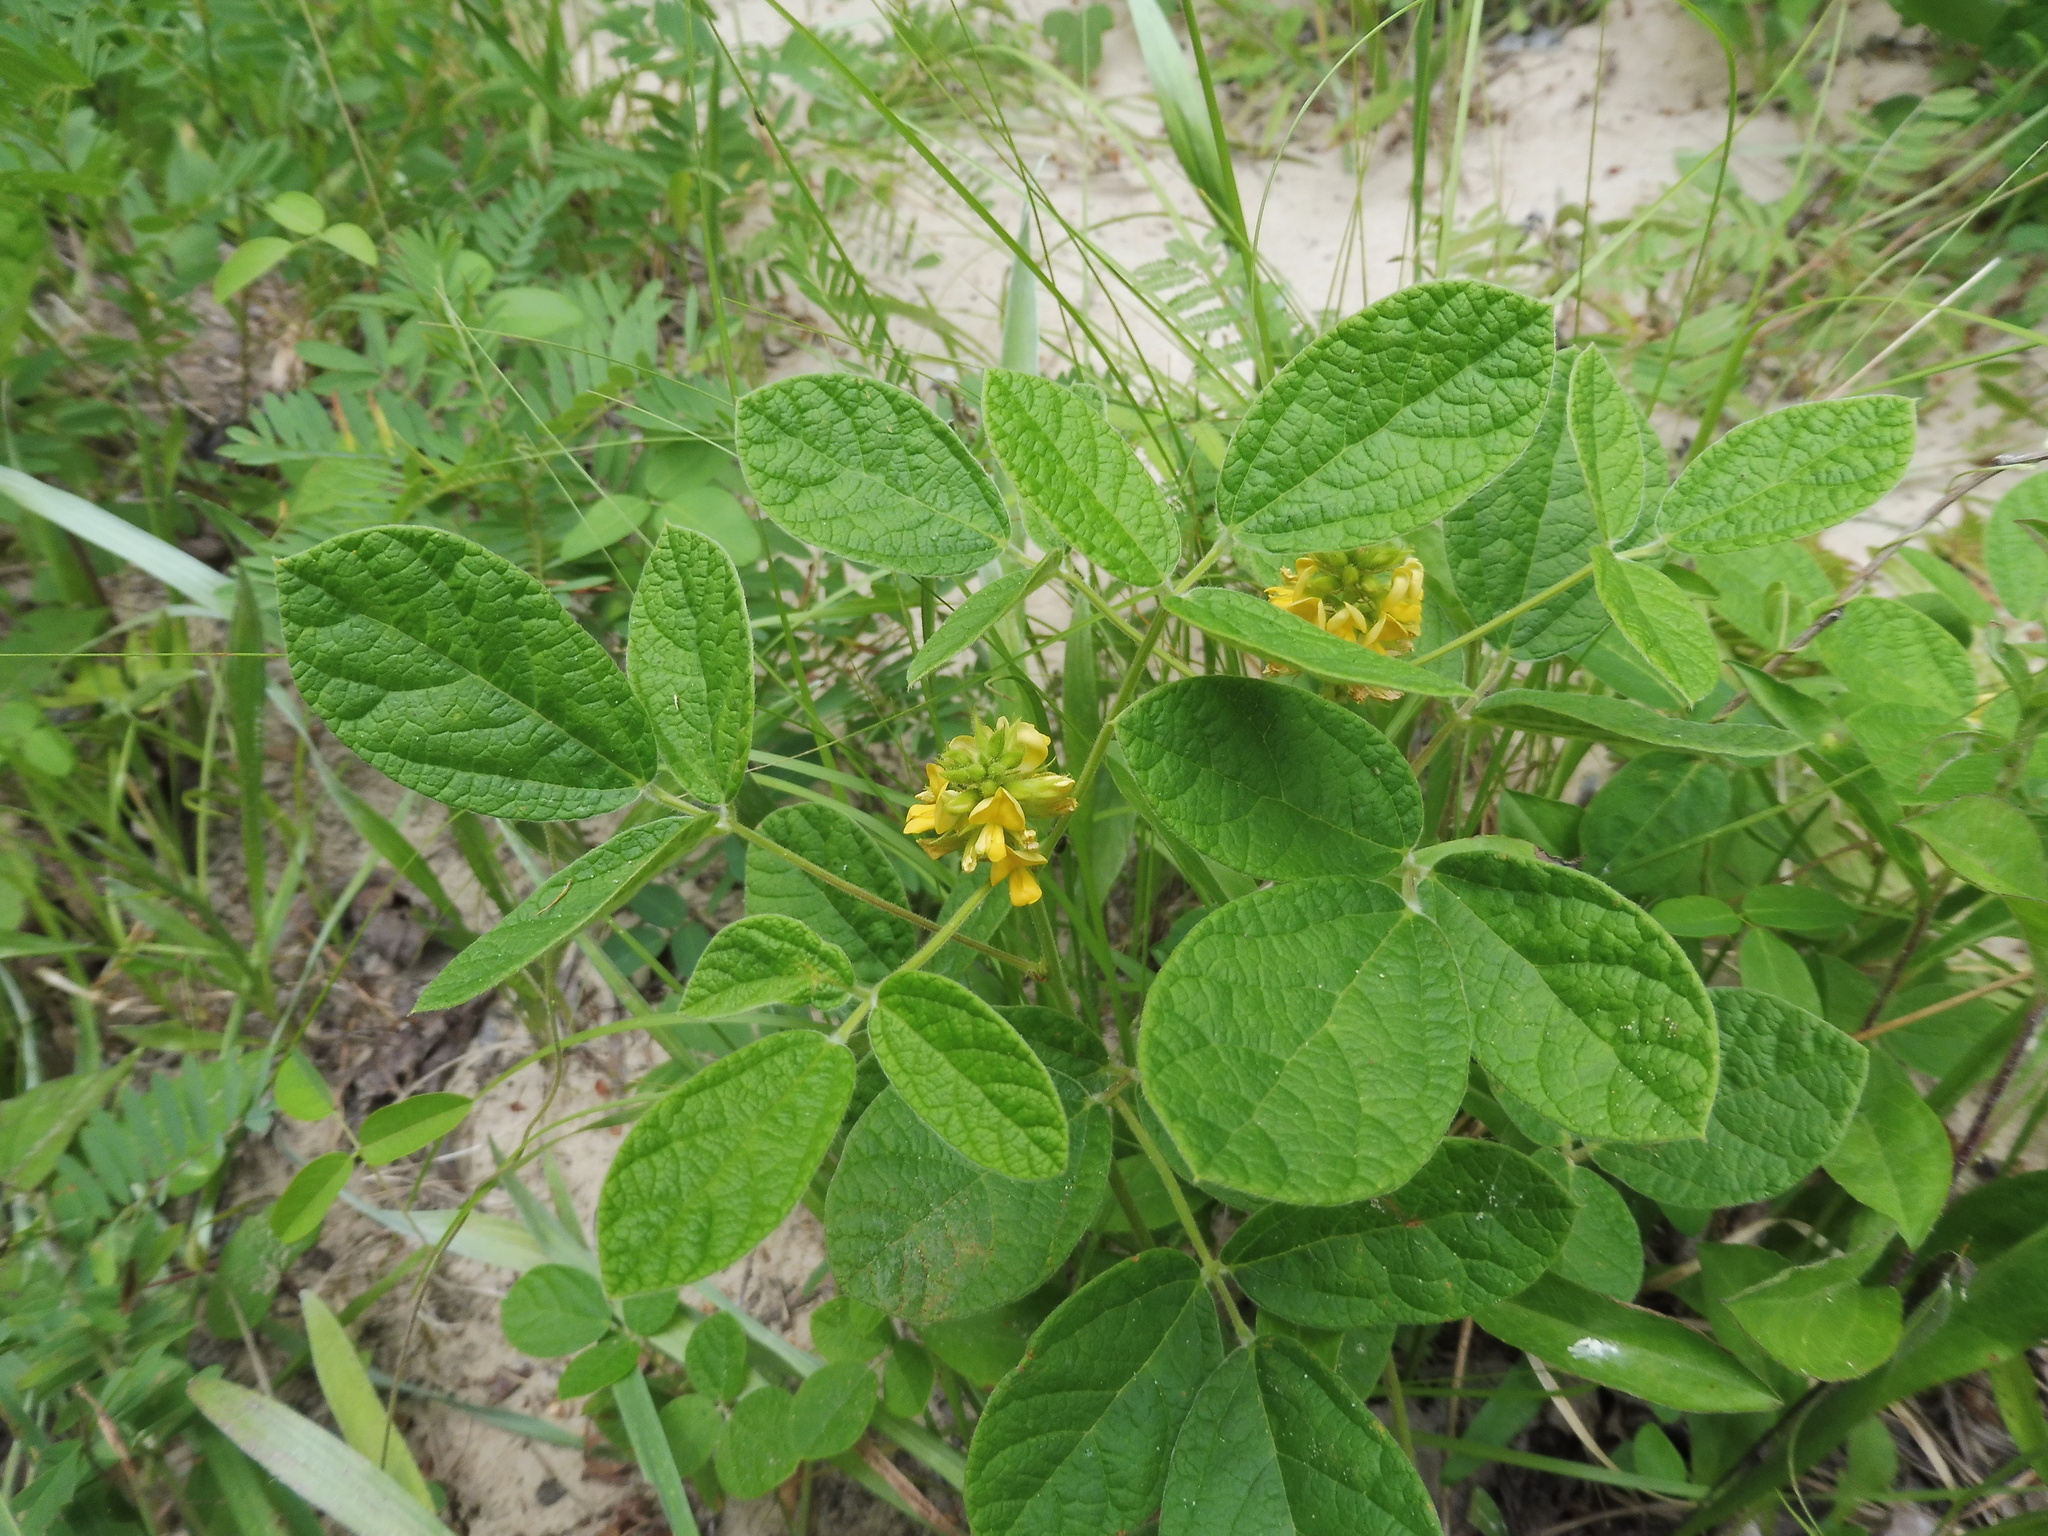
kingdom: Plantae
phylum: Tracheophyta
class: Magnoliopsida
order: Fabales
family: Fabaceae
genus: Rhynchosia
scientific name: Rhynchosia tomentosa
